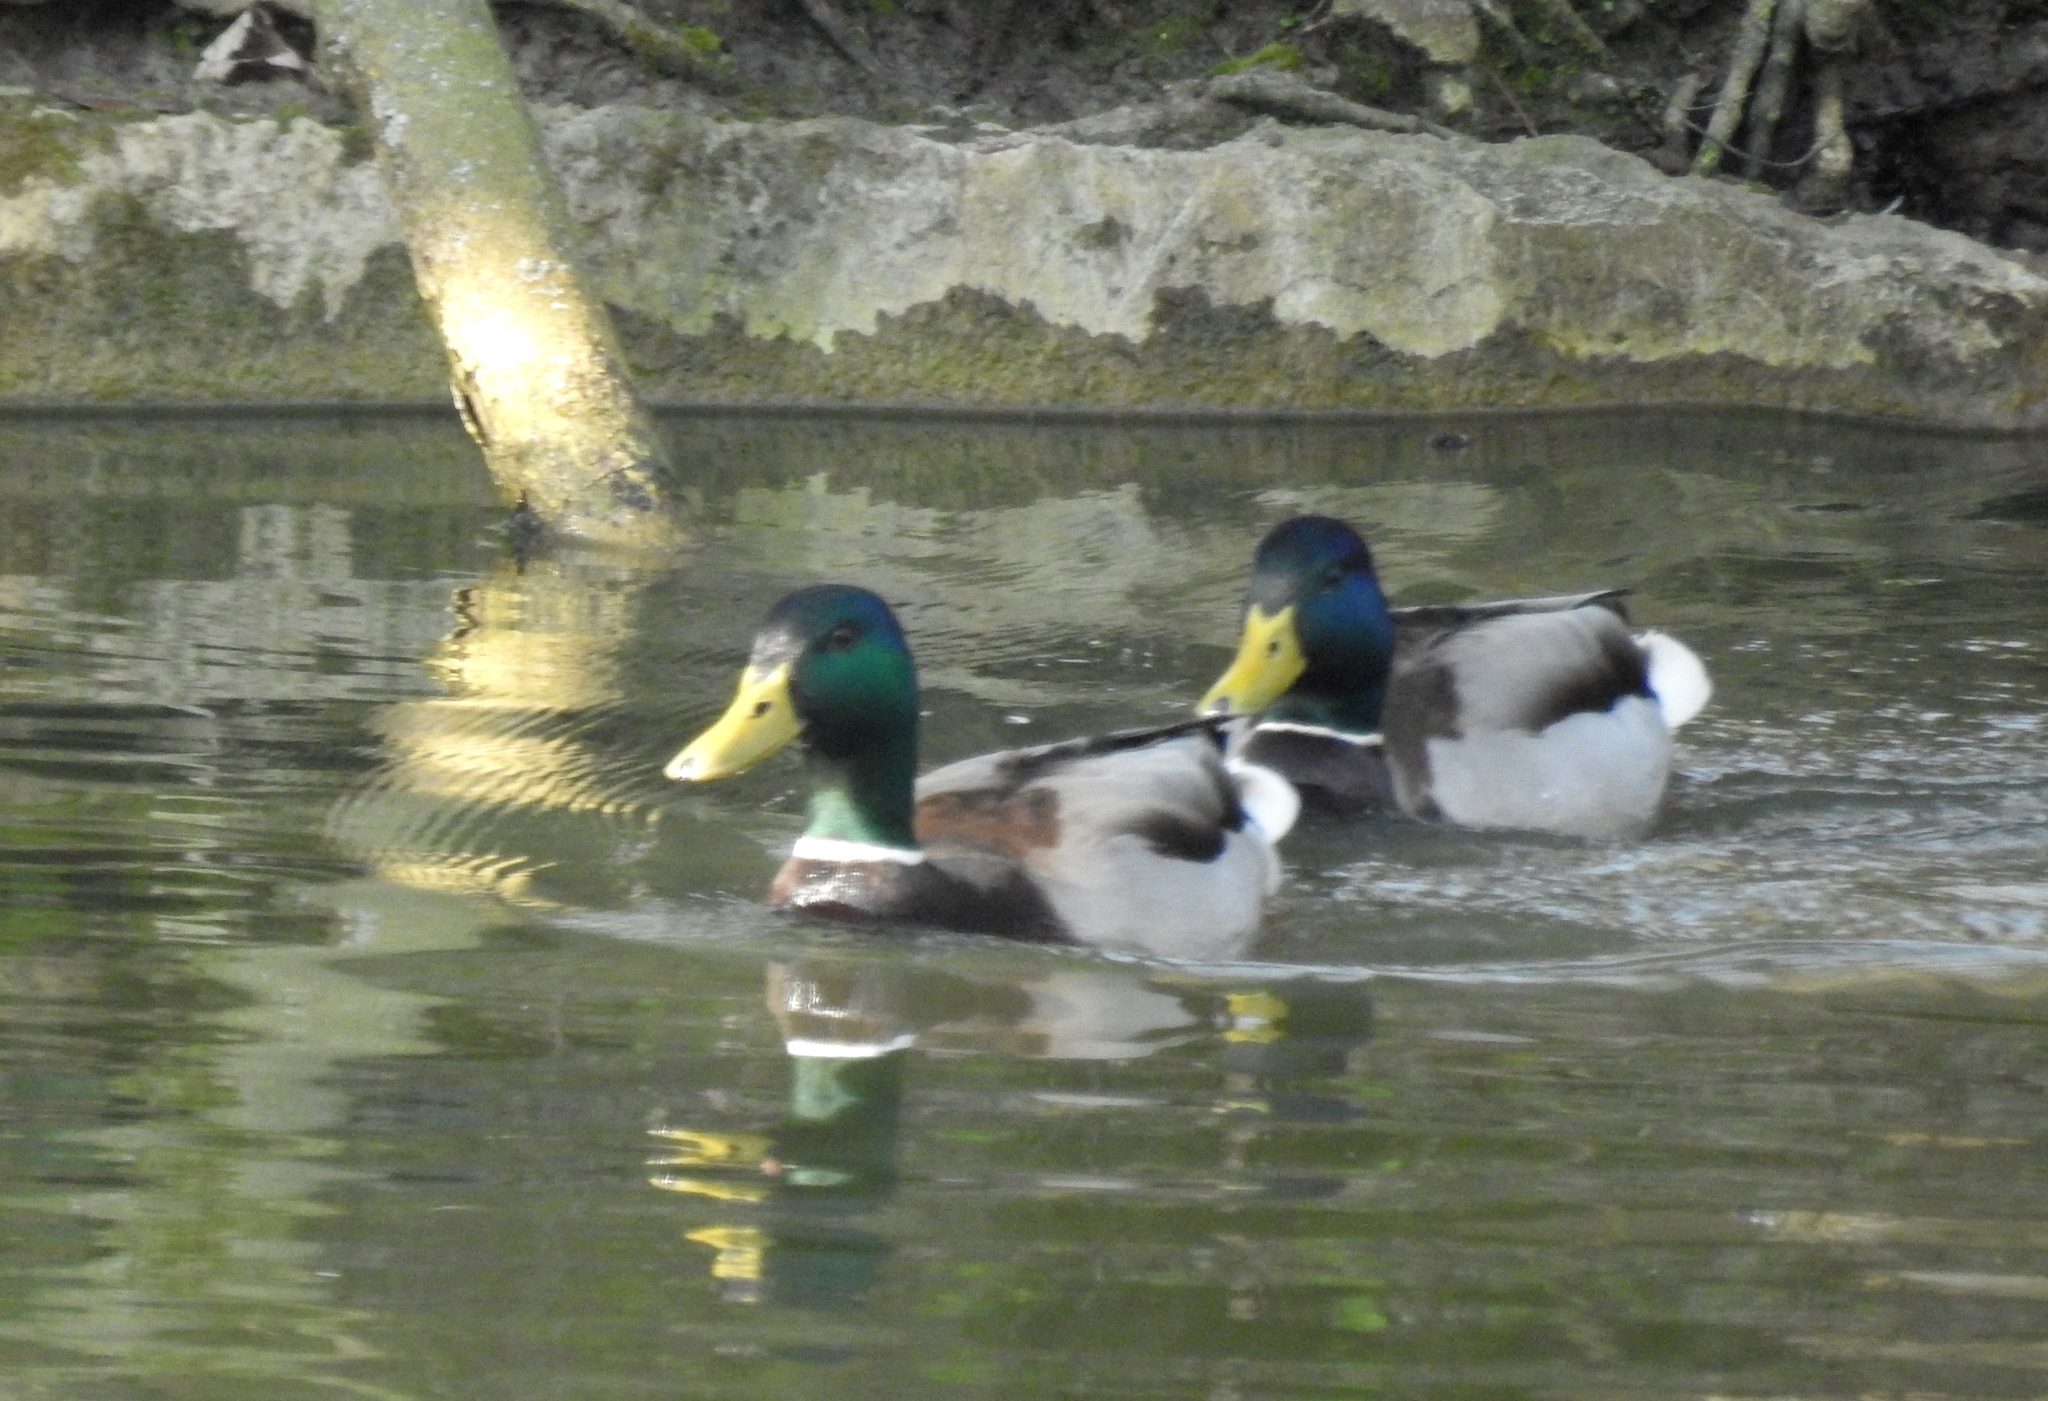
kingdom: Animalia
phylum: Chordata
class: Aves
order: Anseriformes
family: Anatidae
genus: Anas
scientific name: Anas platyrhynchos
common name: Mallard
